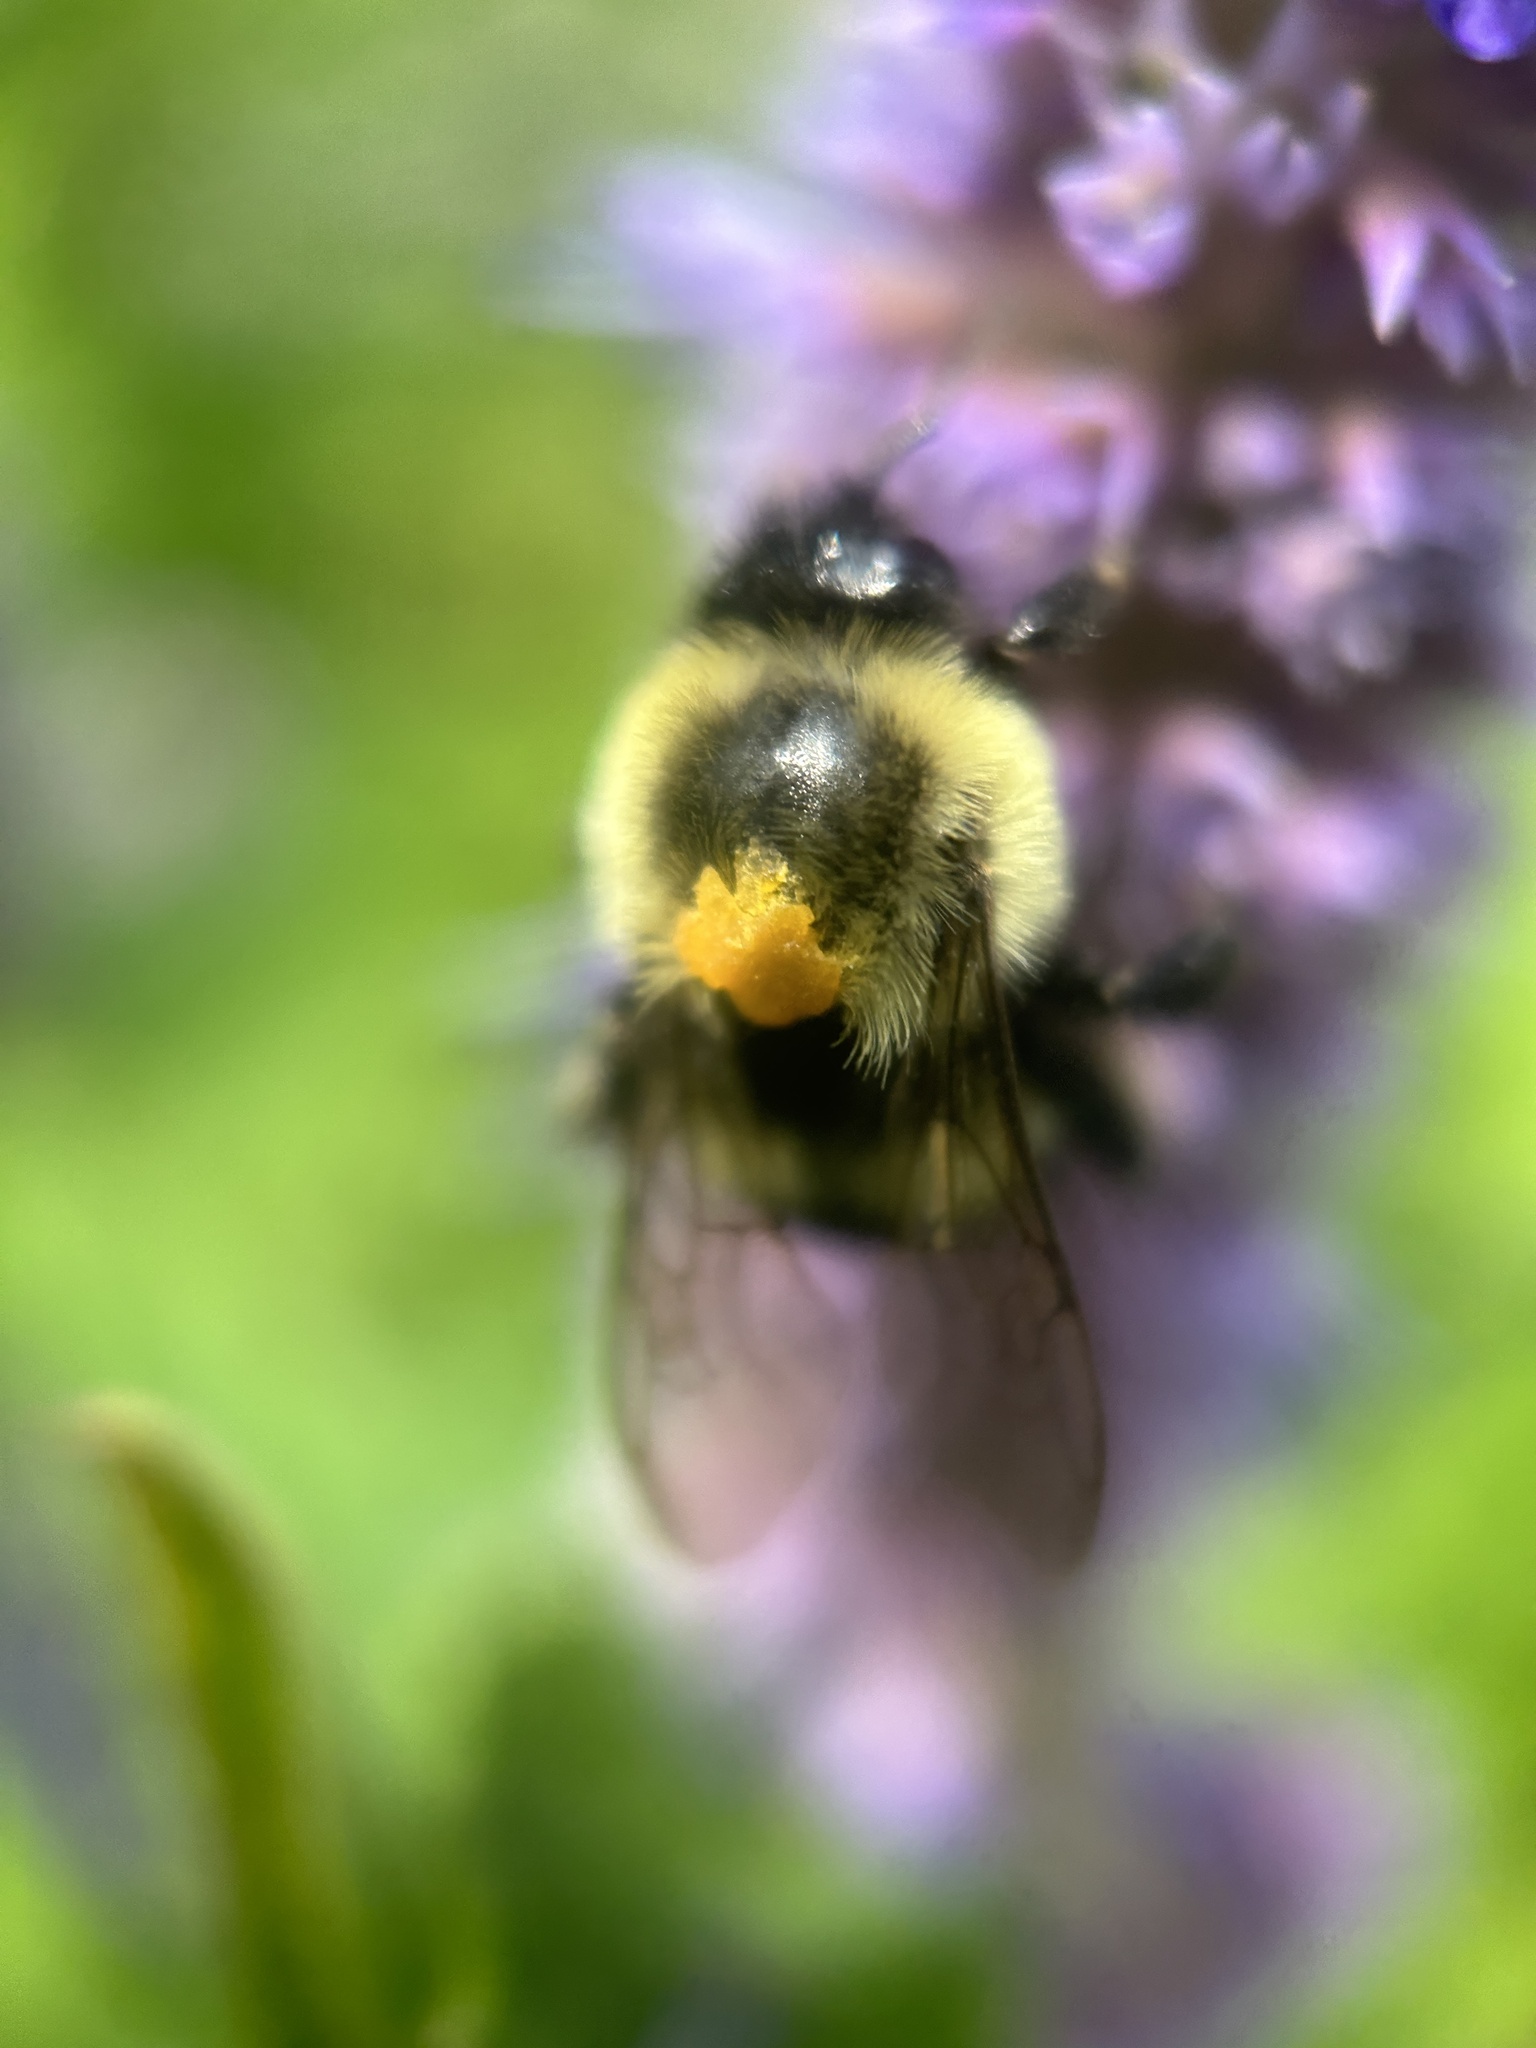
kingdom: Animalia
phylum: Arthropoda
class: Insecta
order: Hymenoptera
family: Apidae
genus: Bombus
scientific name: Bombus impatiens
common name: Common eastern bumble bee
